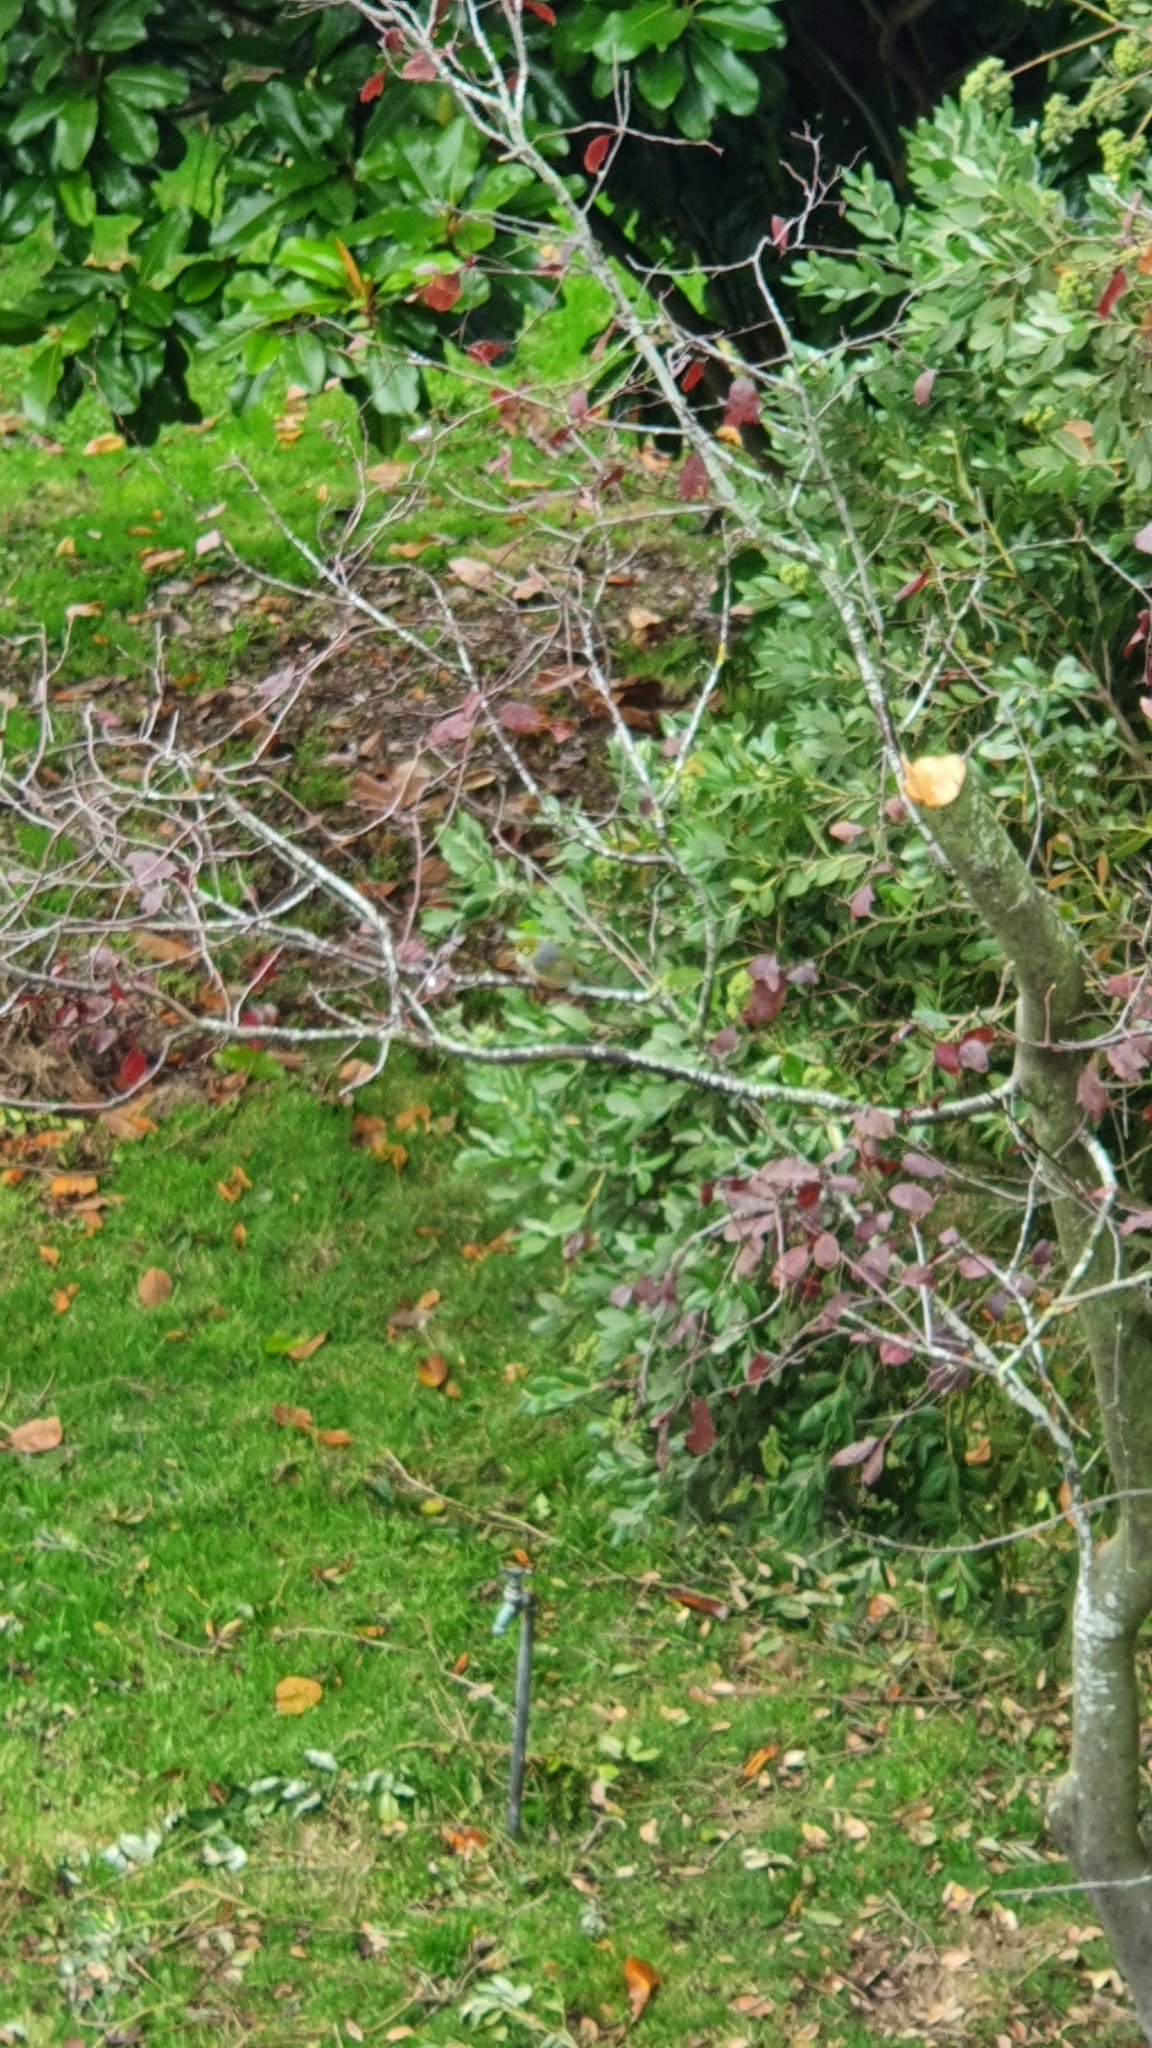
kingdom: Animalia
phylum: Chordata
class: Aves
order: Passeriformes
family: Zosteropidae
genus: Zosterops
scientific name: Zosterops lateralis
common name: Silvereye
